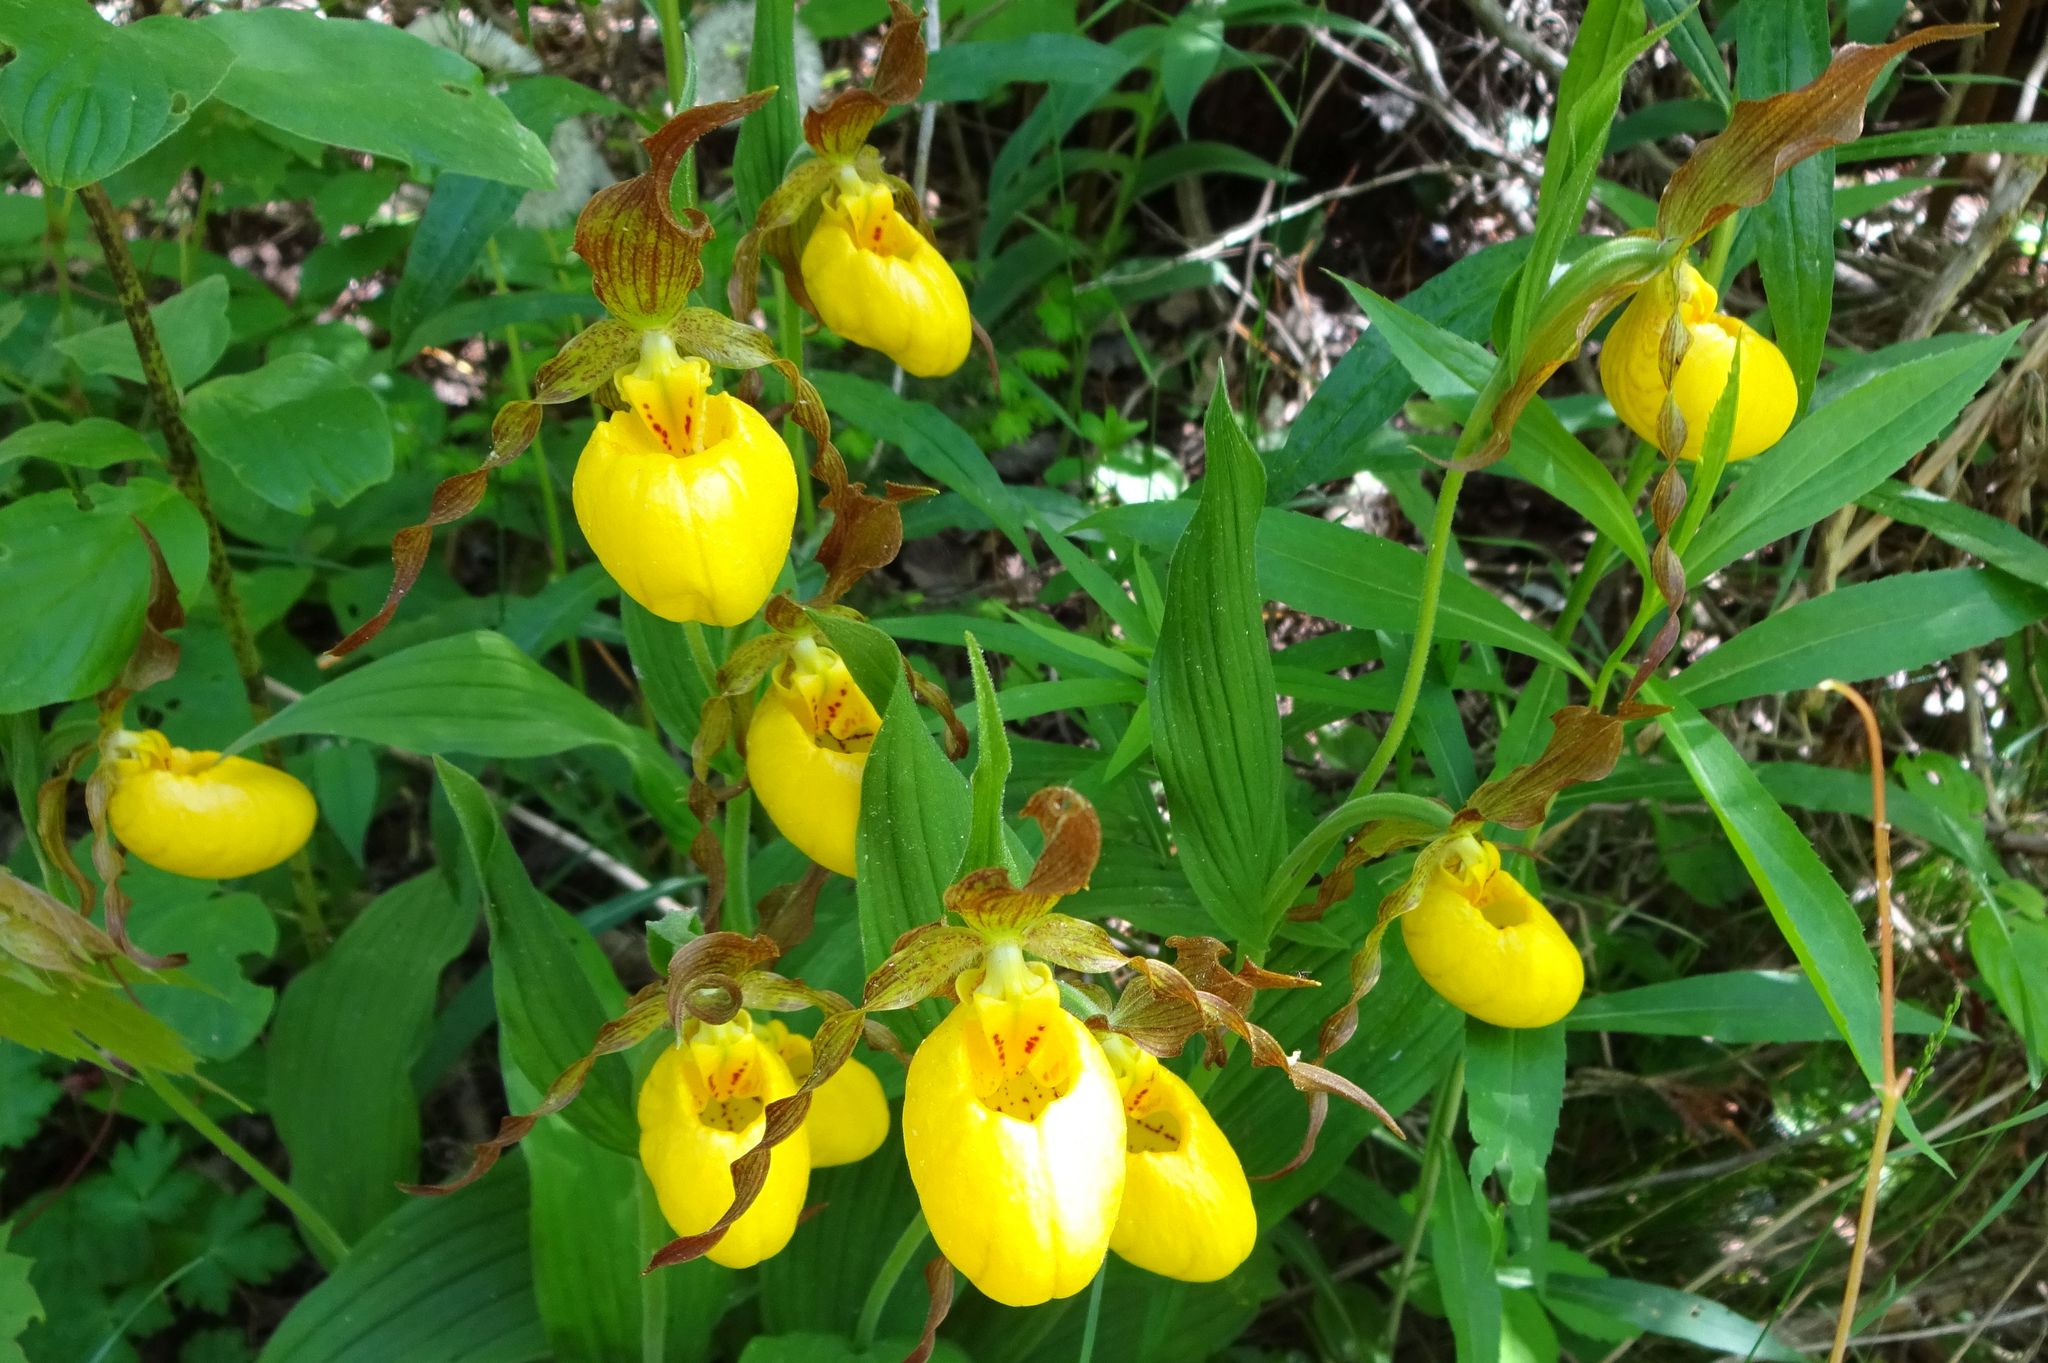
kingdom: Plantae
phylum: Tracheophyta
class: Liliopsida
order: Asparagales
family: Orchidaceae
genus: Cypripedium
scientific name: Cypripedium parviflorum
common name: American yellow lady's-slipper
